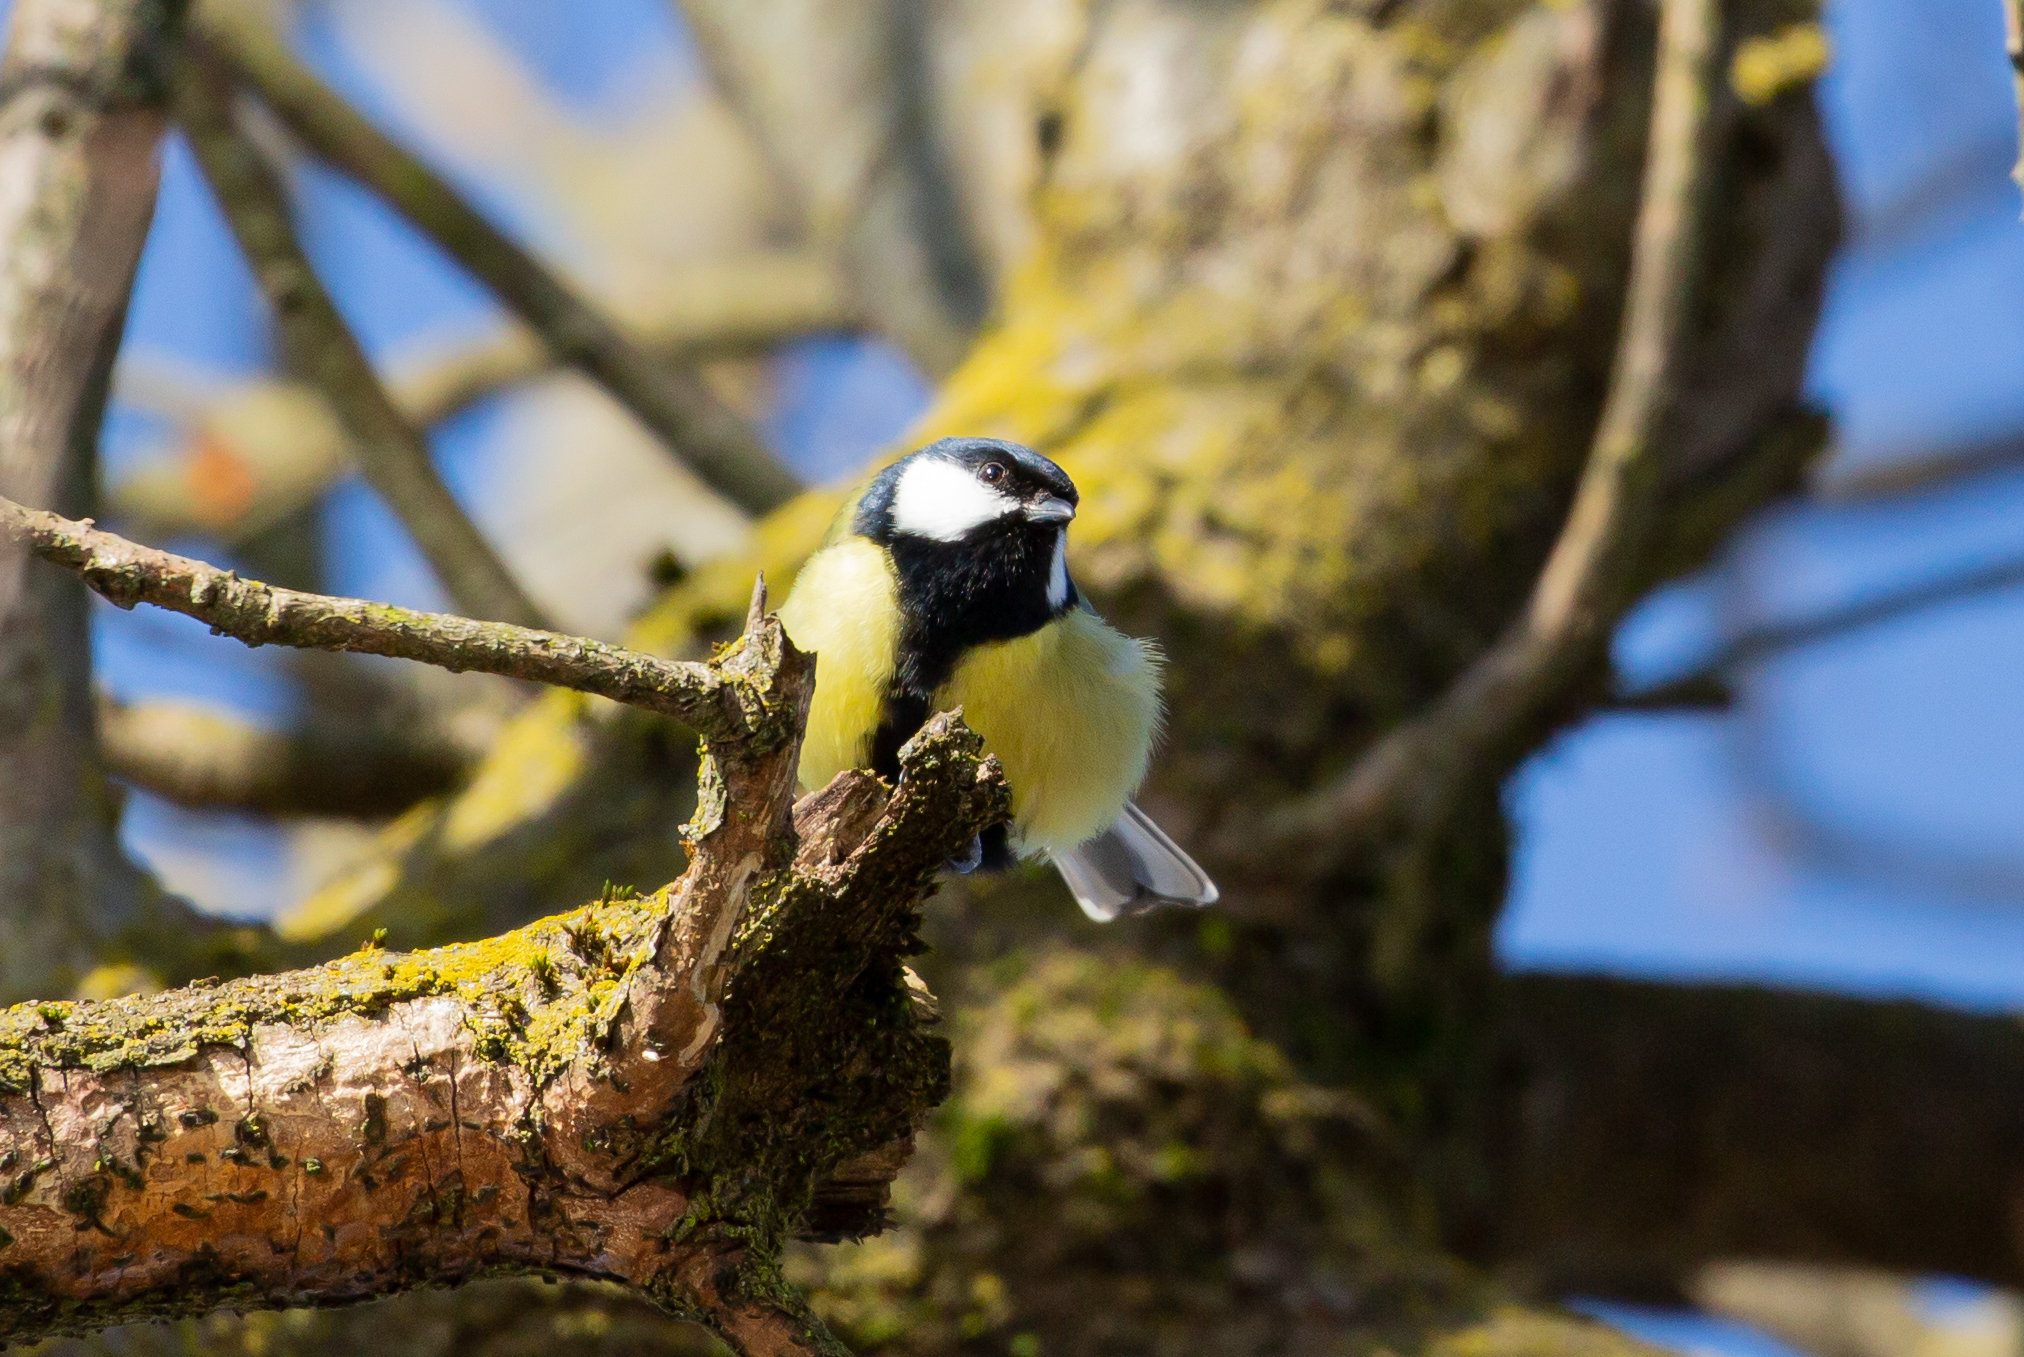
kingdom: Animalia
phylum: Chordata
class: Aves
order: Passeriformes
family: Paridae
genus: Parus
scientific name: Parus major
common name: Great tit
